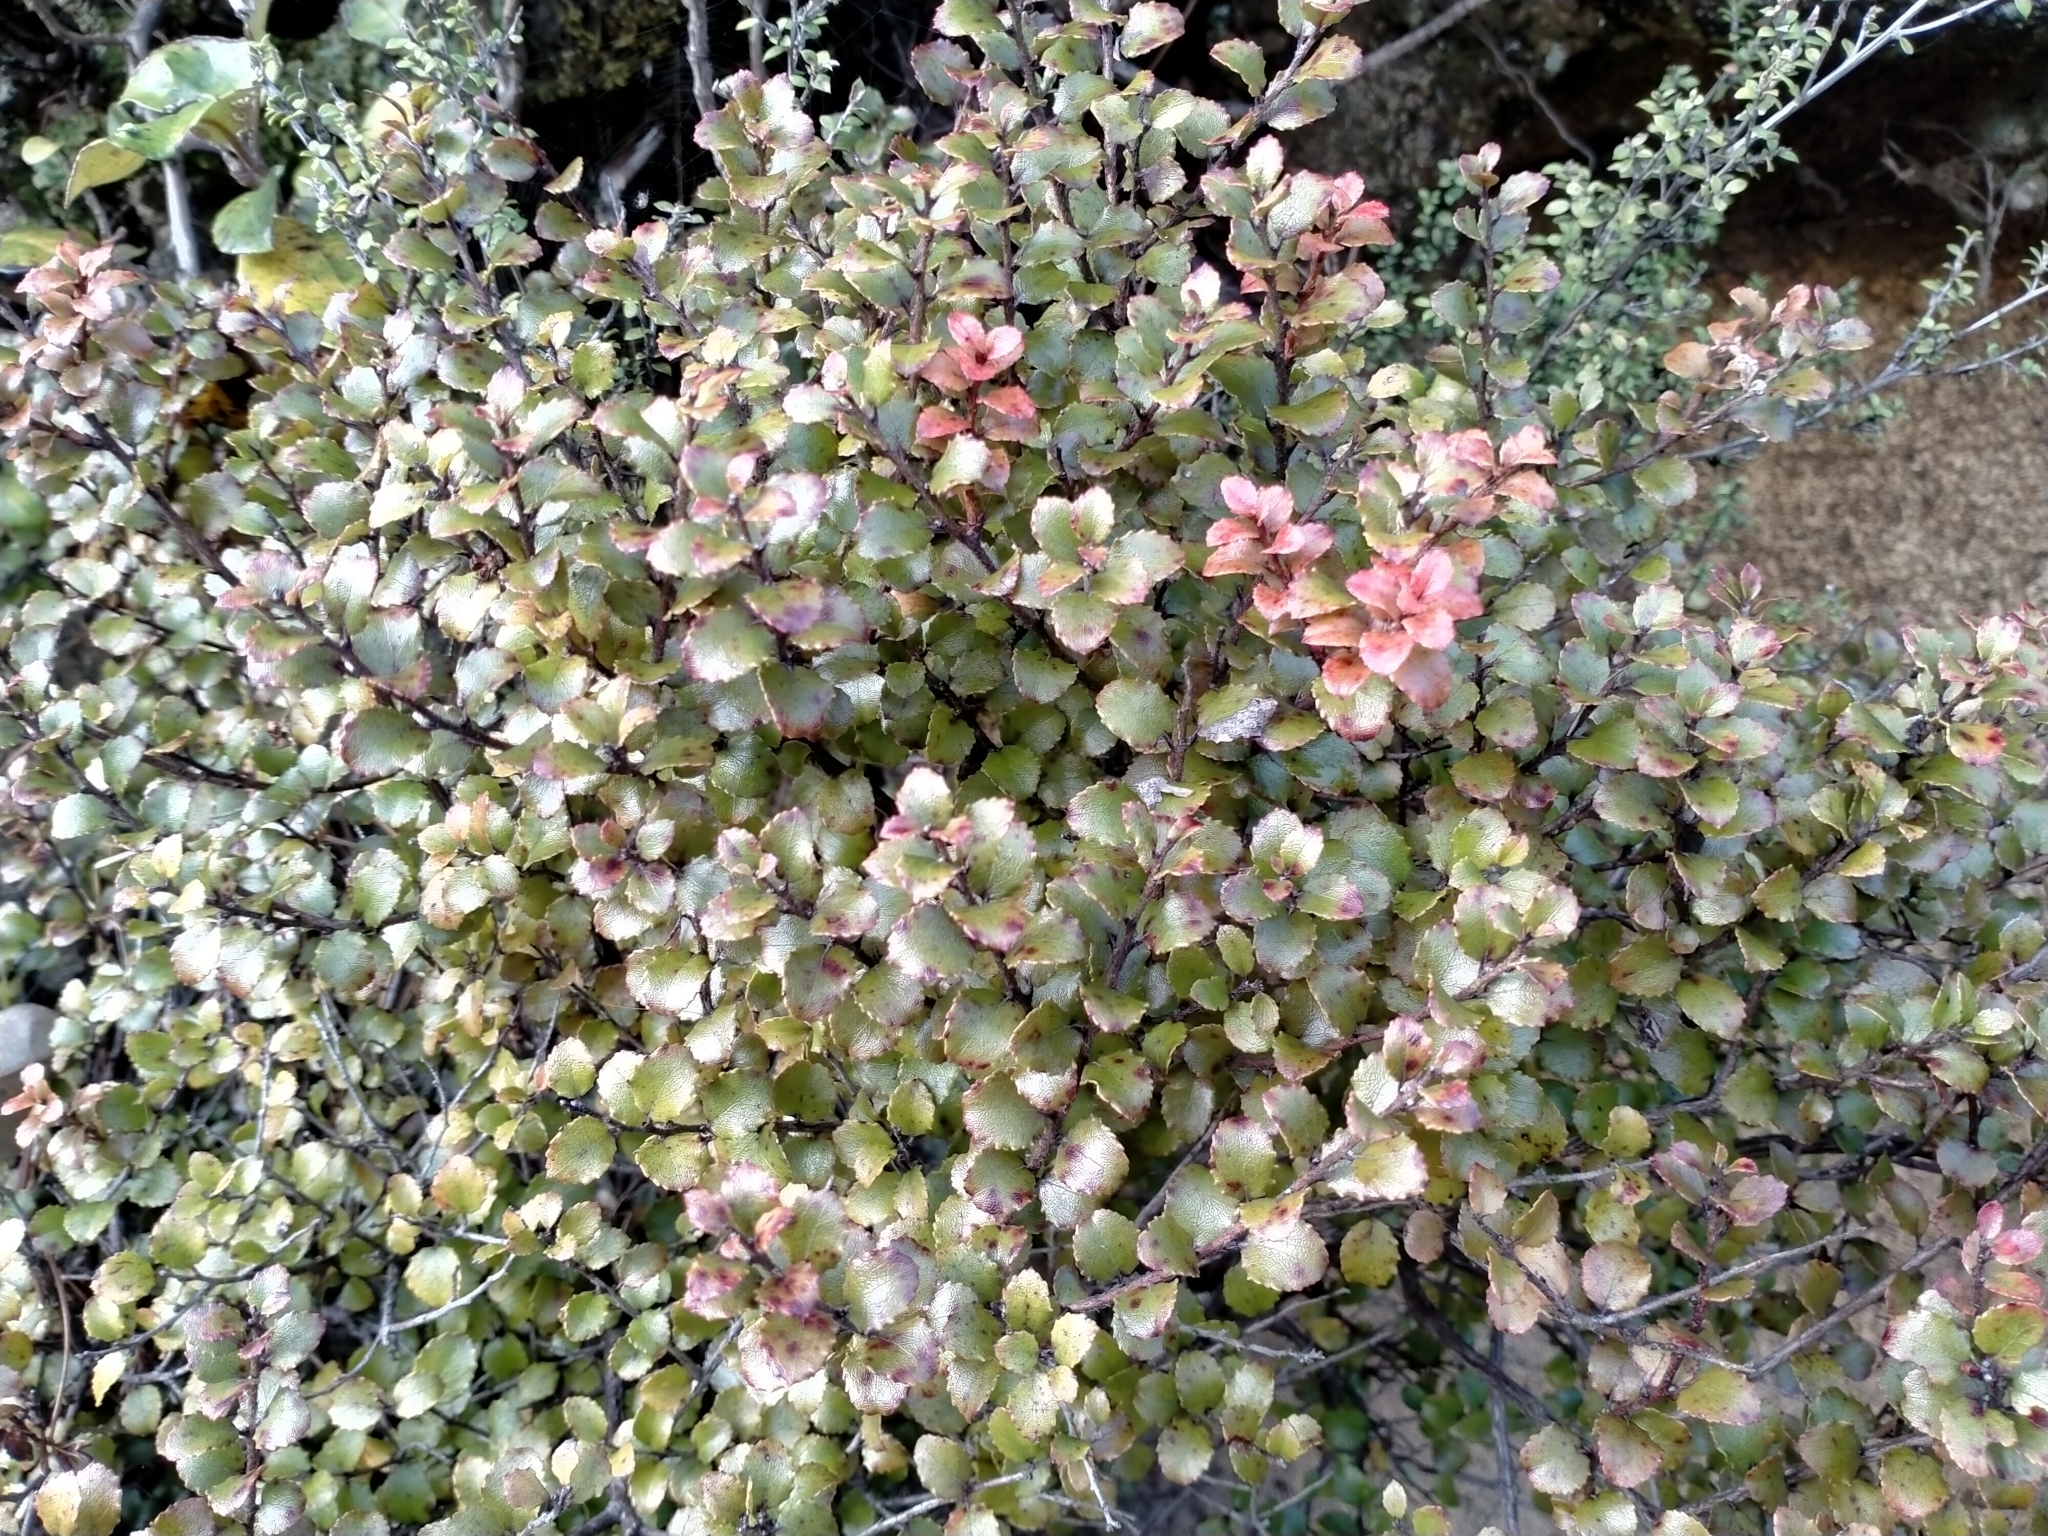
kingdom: Plantae
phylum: Tracheophyta
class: Magnoliopsida
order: Ericales
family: Ericaceae
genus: Gaultheria
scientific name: Gaultheria antipoda
